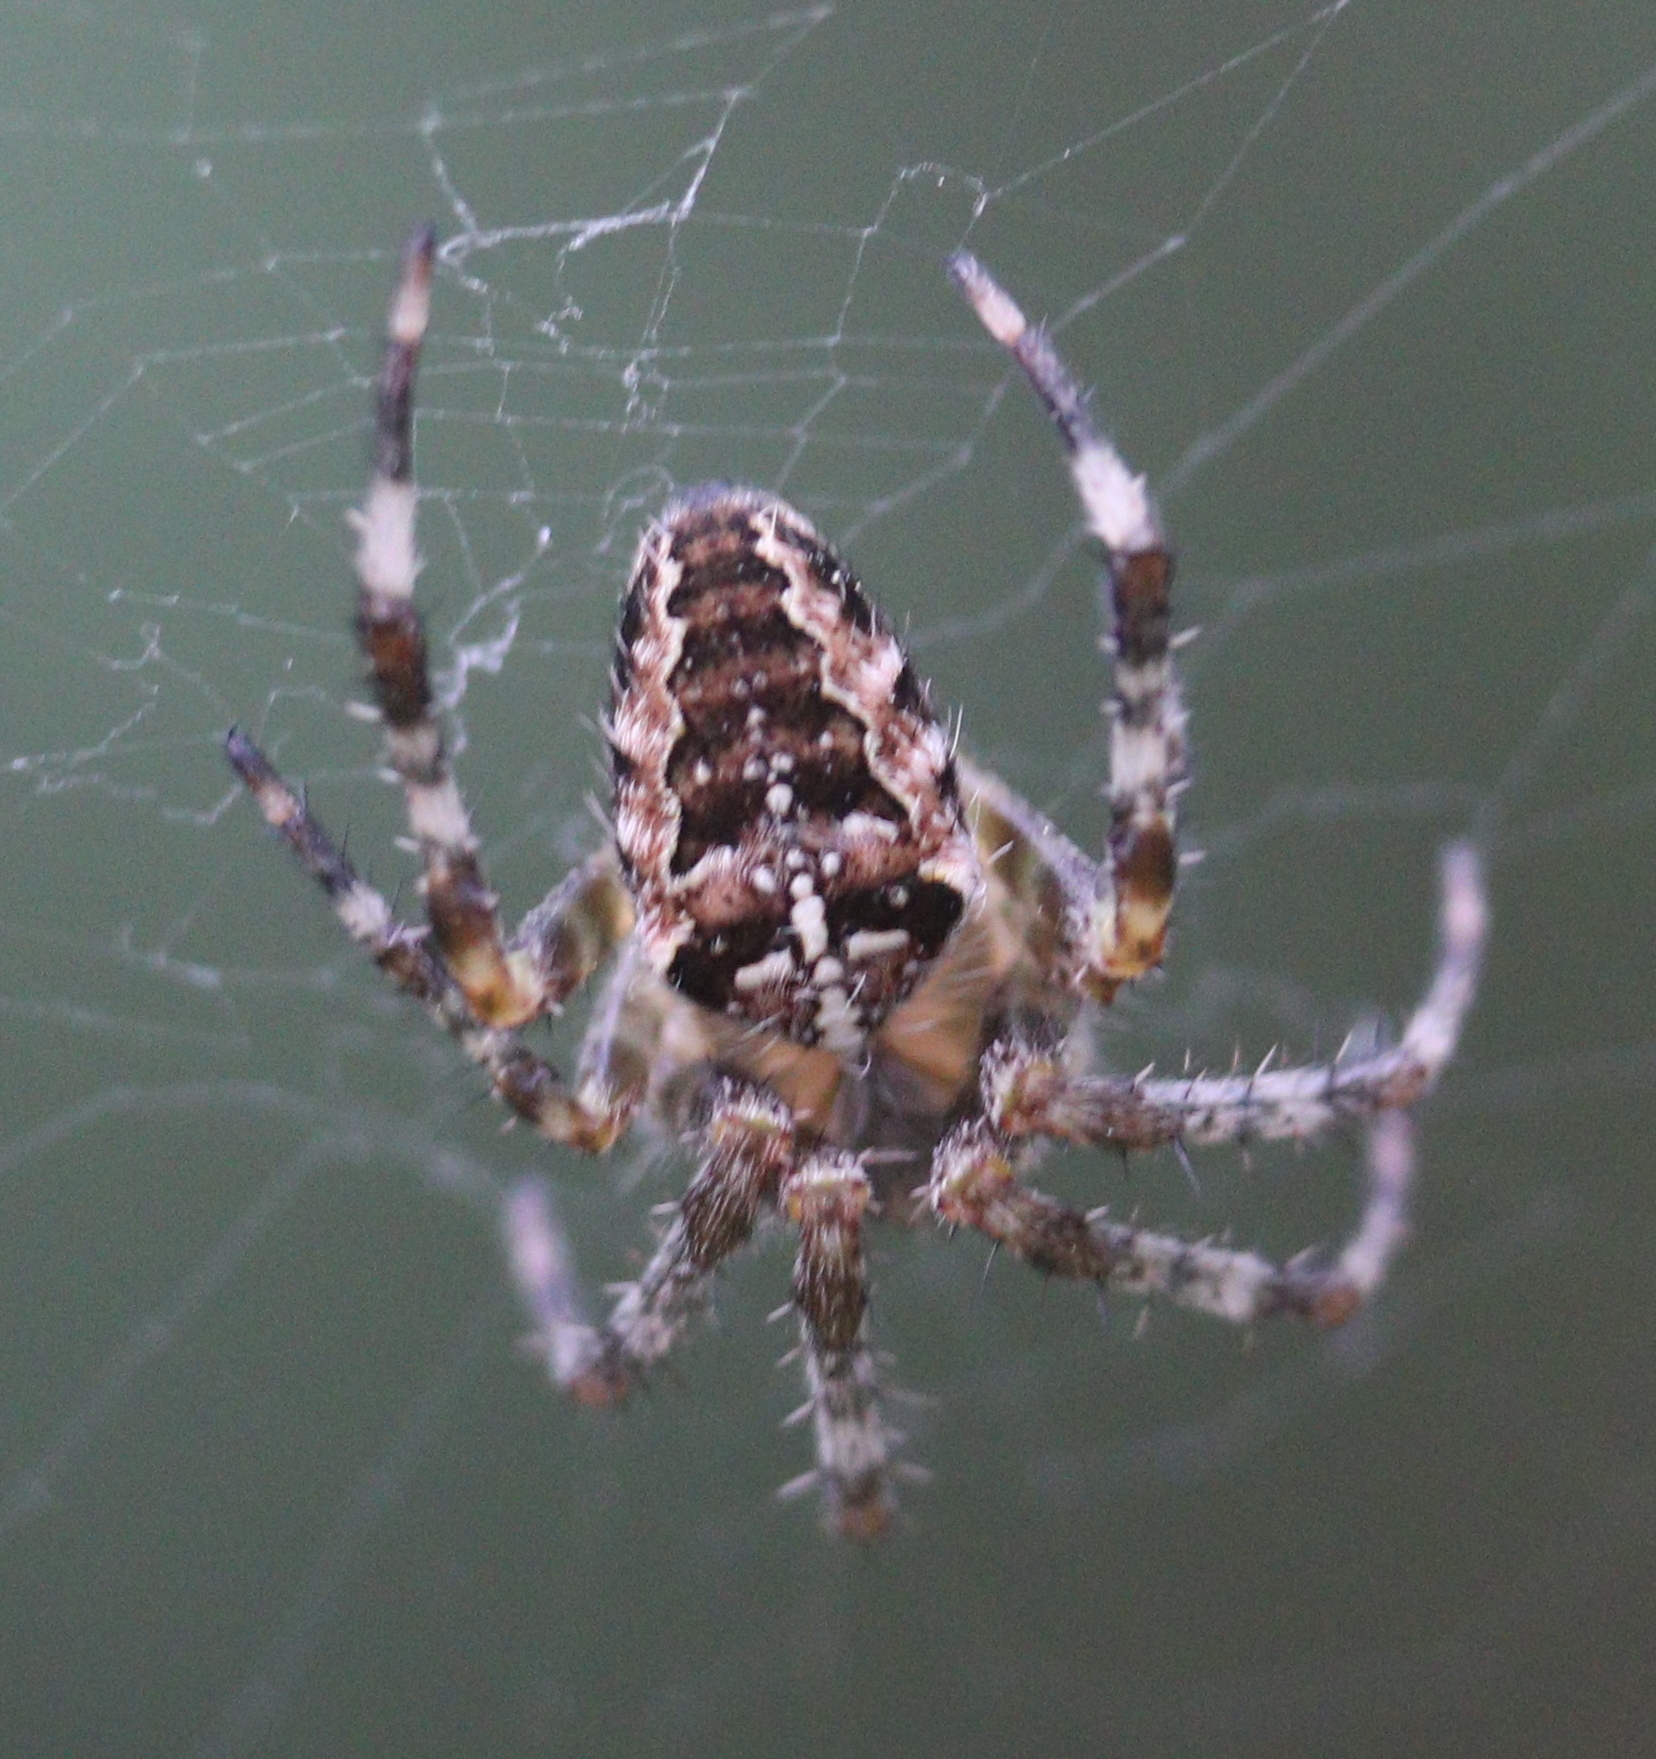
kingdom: Animalia
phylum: Arthropoda
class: Arachnida
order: Araneae
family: Araneidae
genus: Araneus
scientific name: Araneus diadematus
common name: Cross orbweaver
